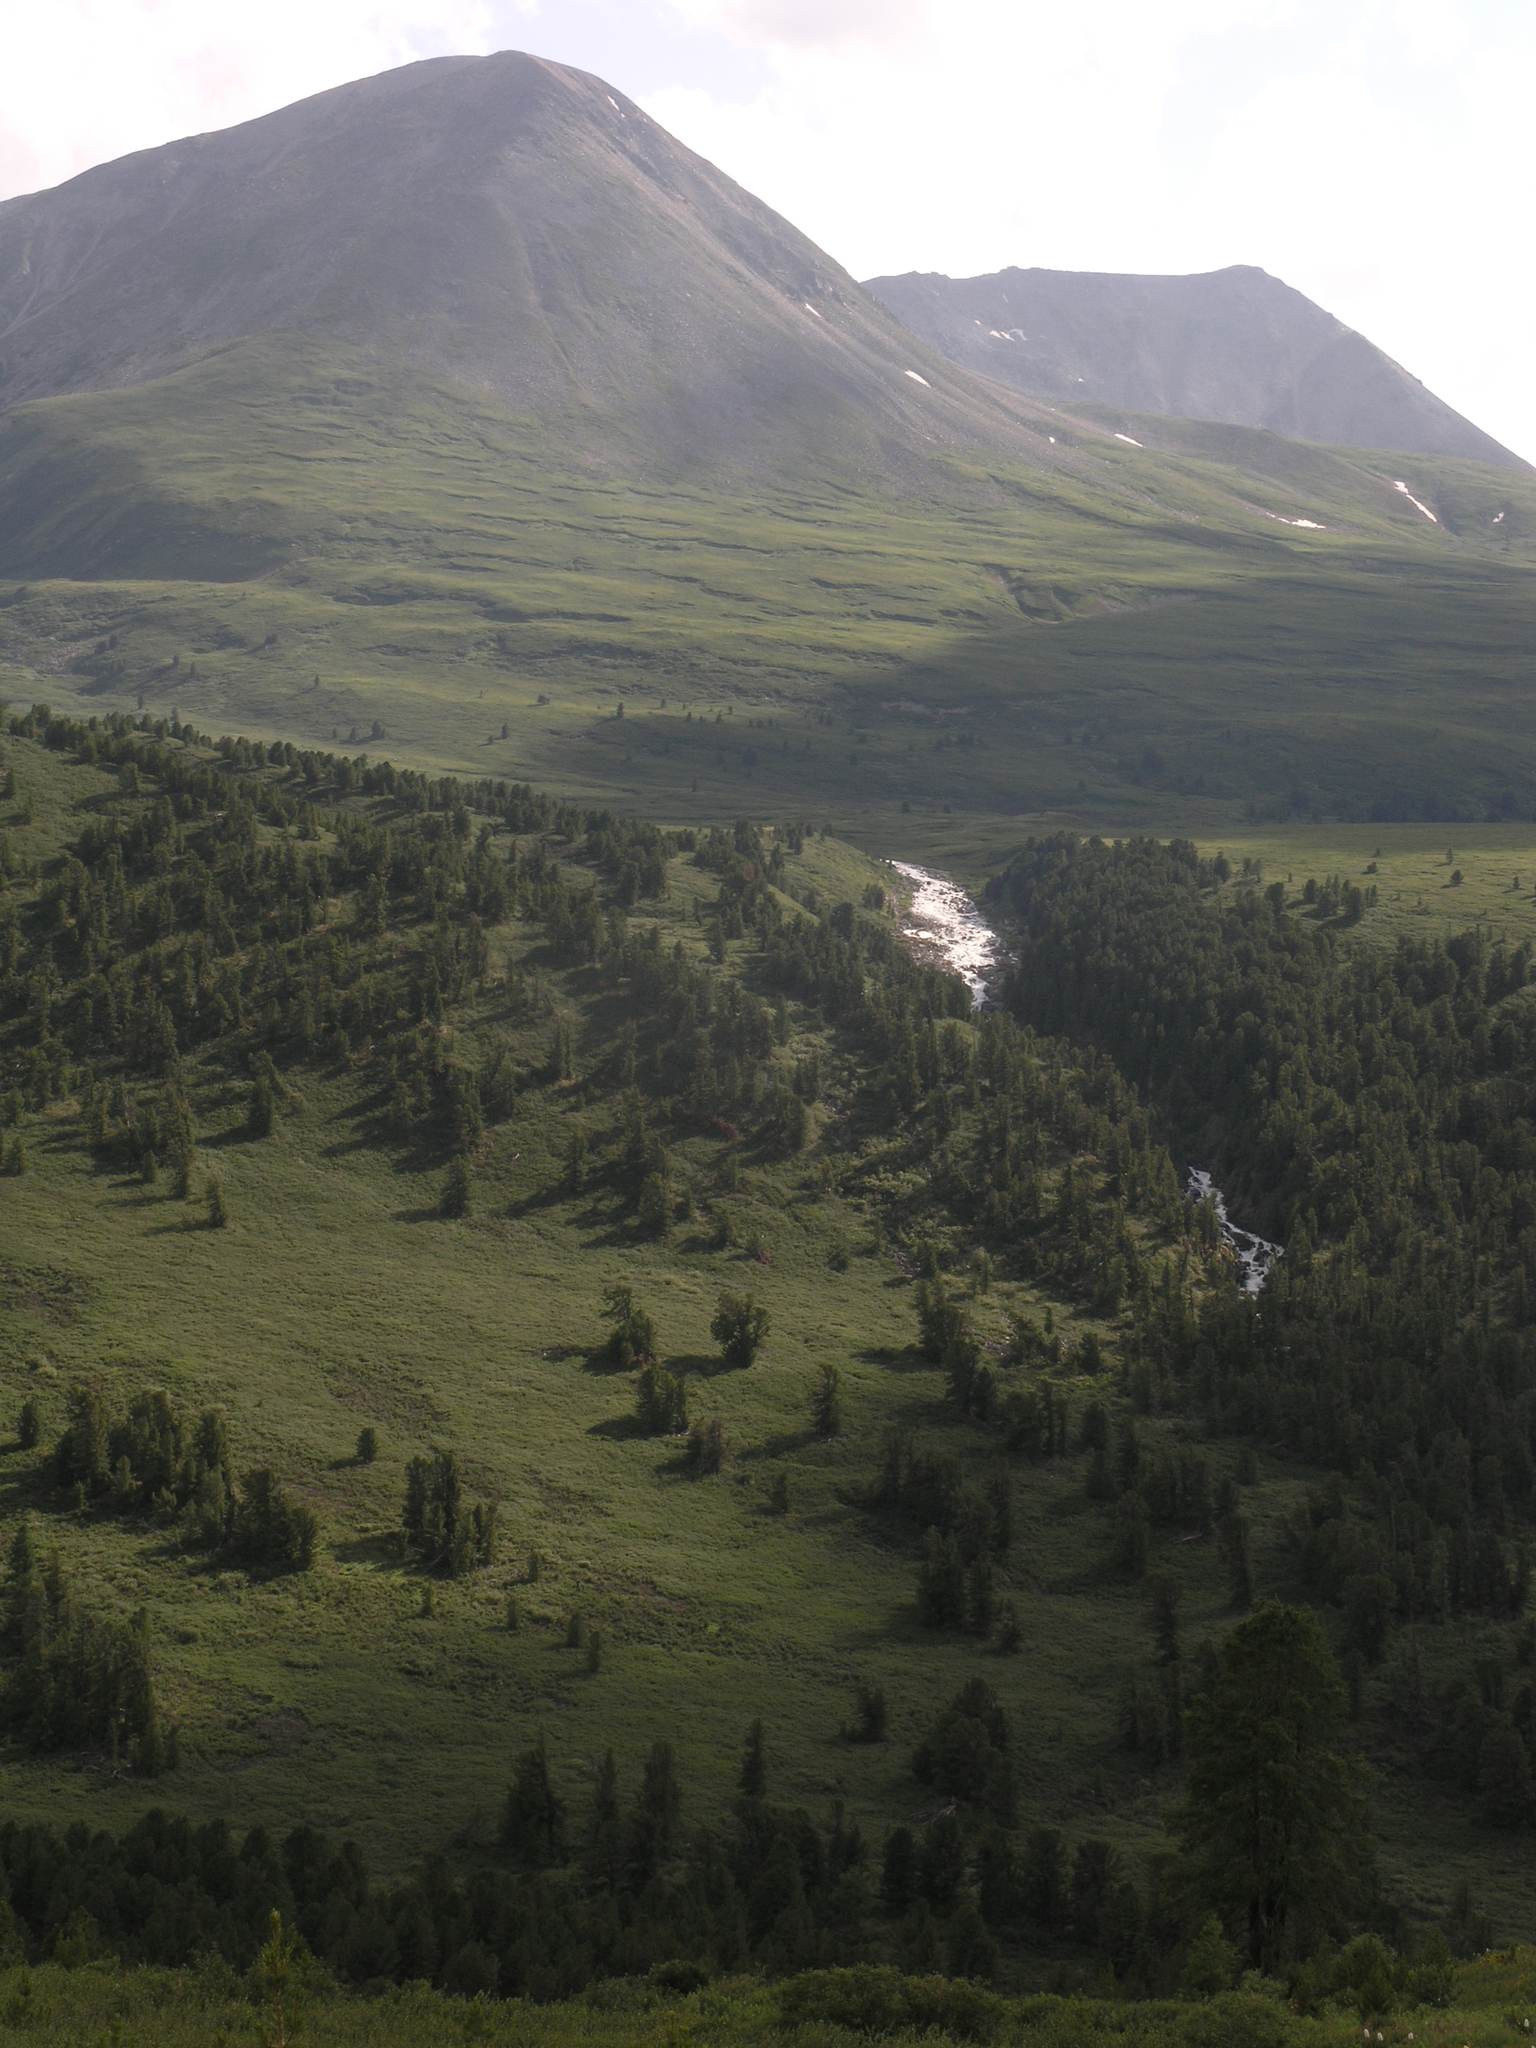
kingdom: Plantae
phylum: Tracheophyta
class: Pinopsida
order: Pinales
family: Pinaceae
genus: Pinus
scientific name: Pinus sibirica
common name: Siberian pine
